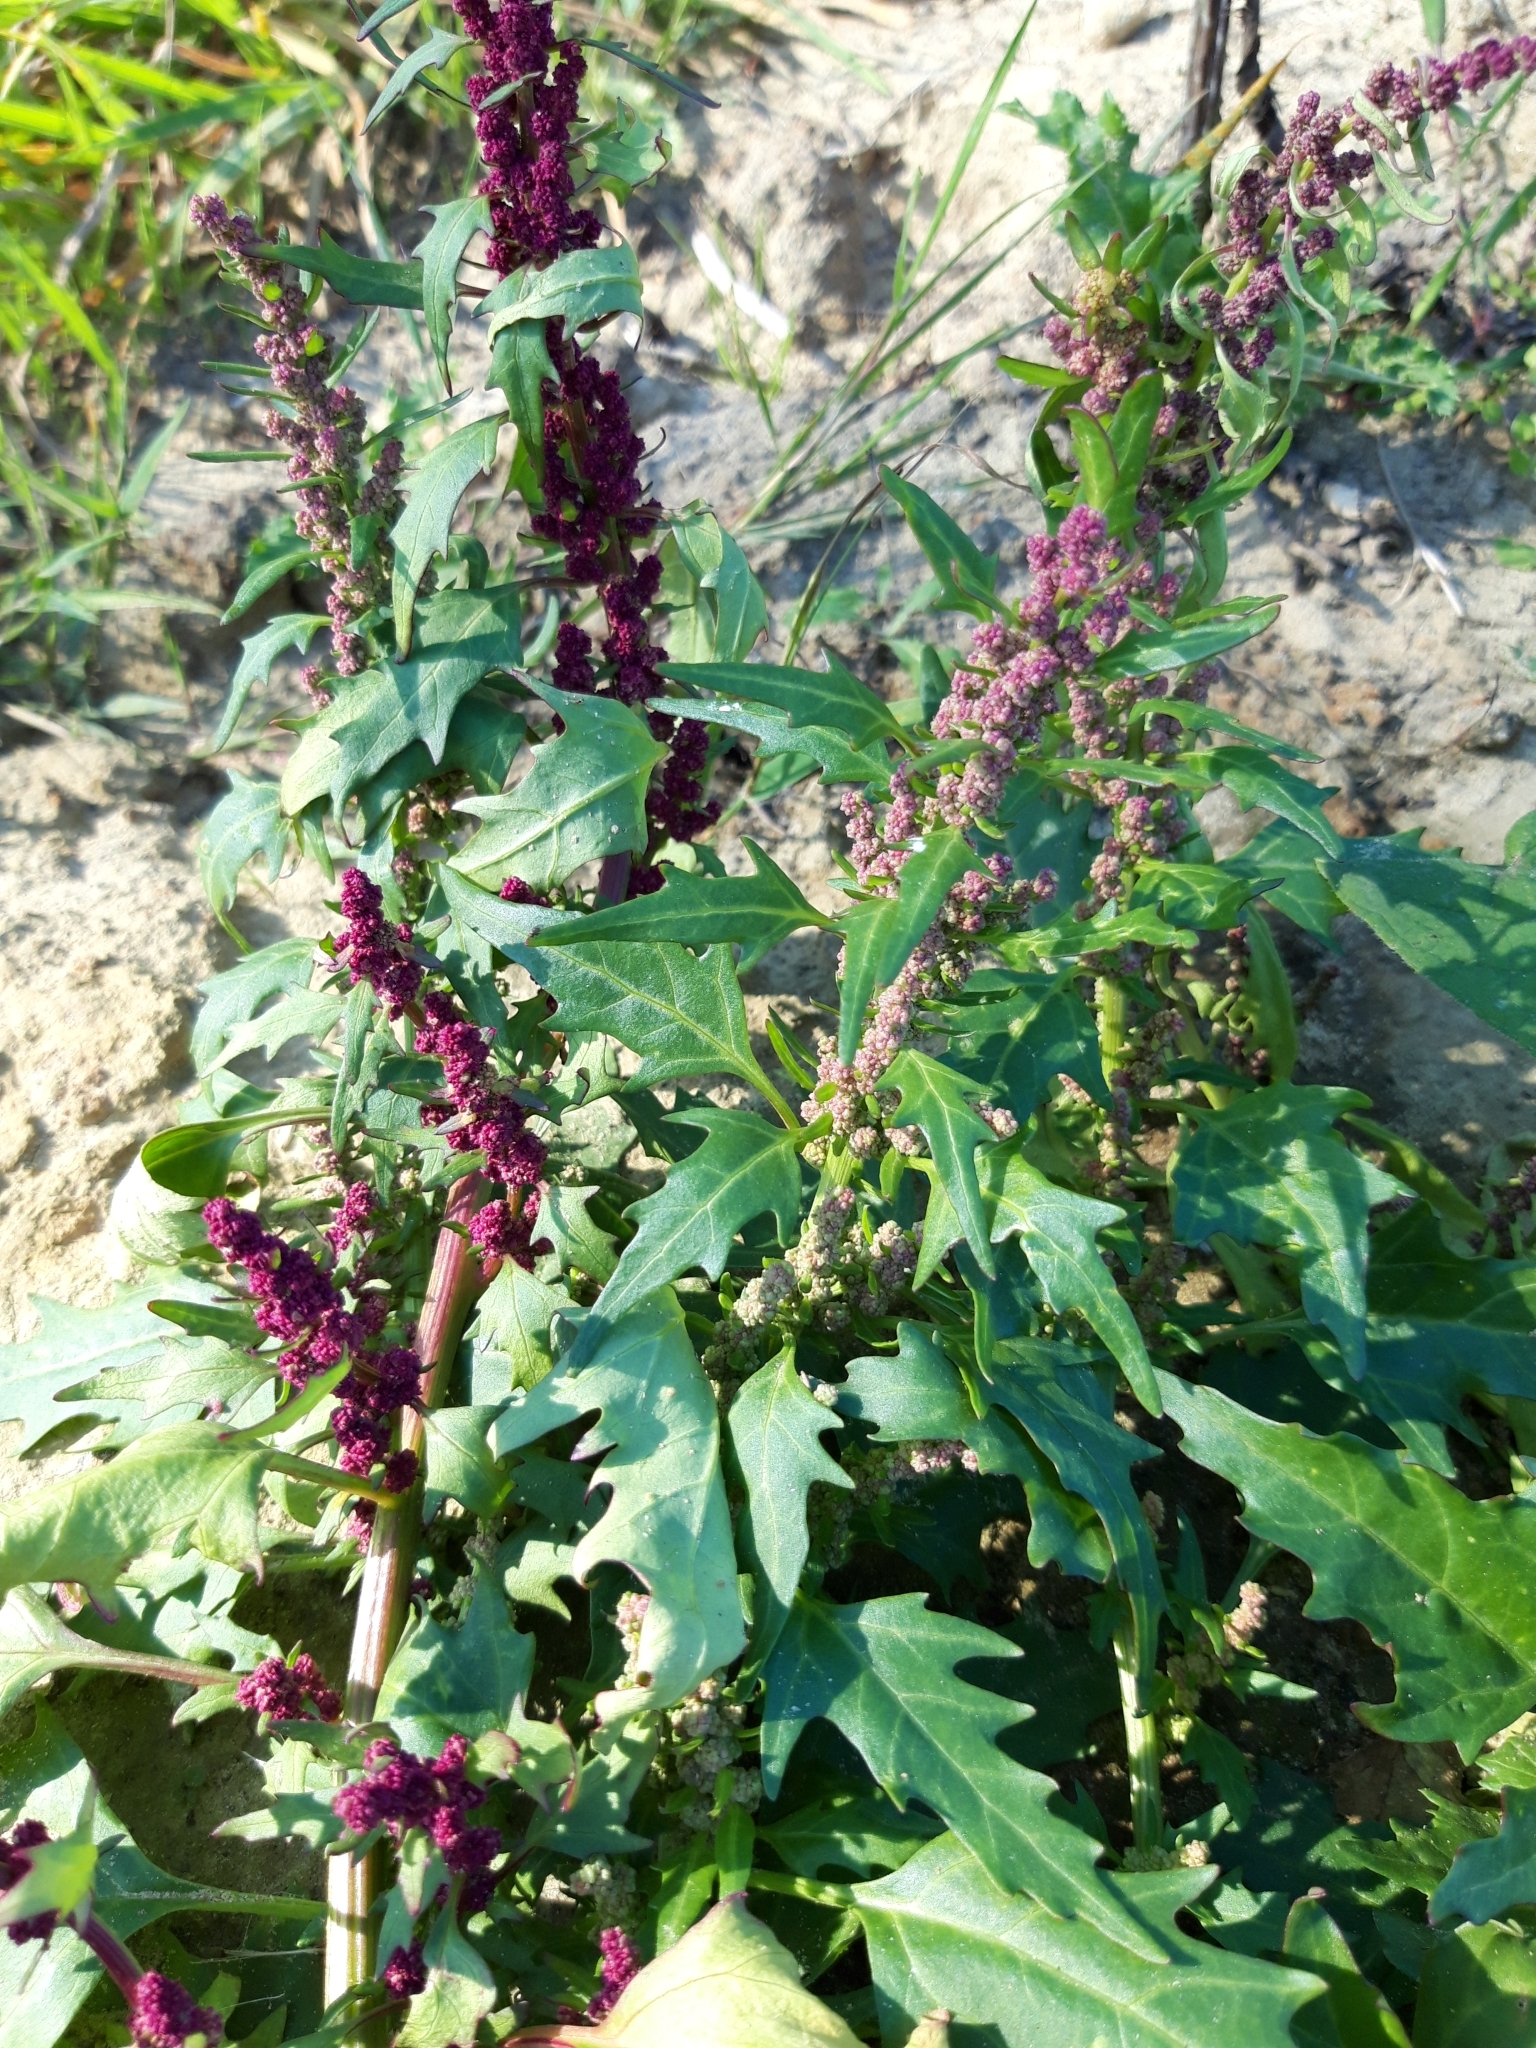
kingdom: Plantae
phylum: Tracheophyta
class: Magnoliopsida
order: Caryophyllales
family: Amaranthaceae
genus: Oxybasis
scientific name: Oxybasis rubra
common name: Red goosefoot
